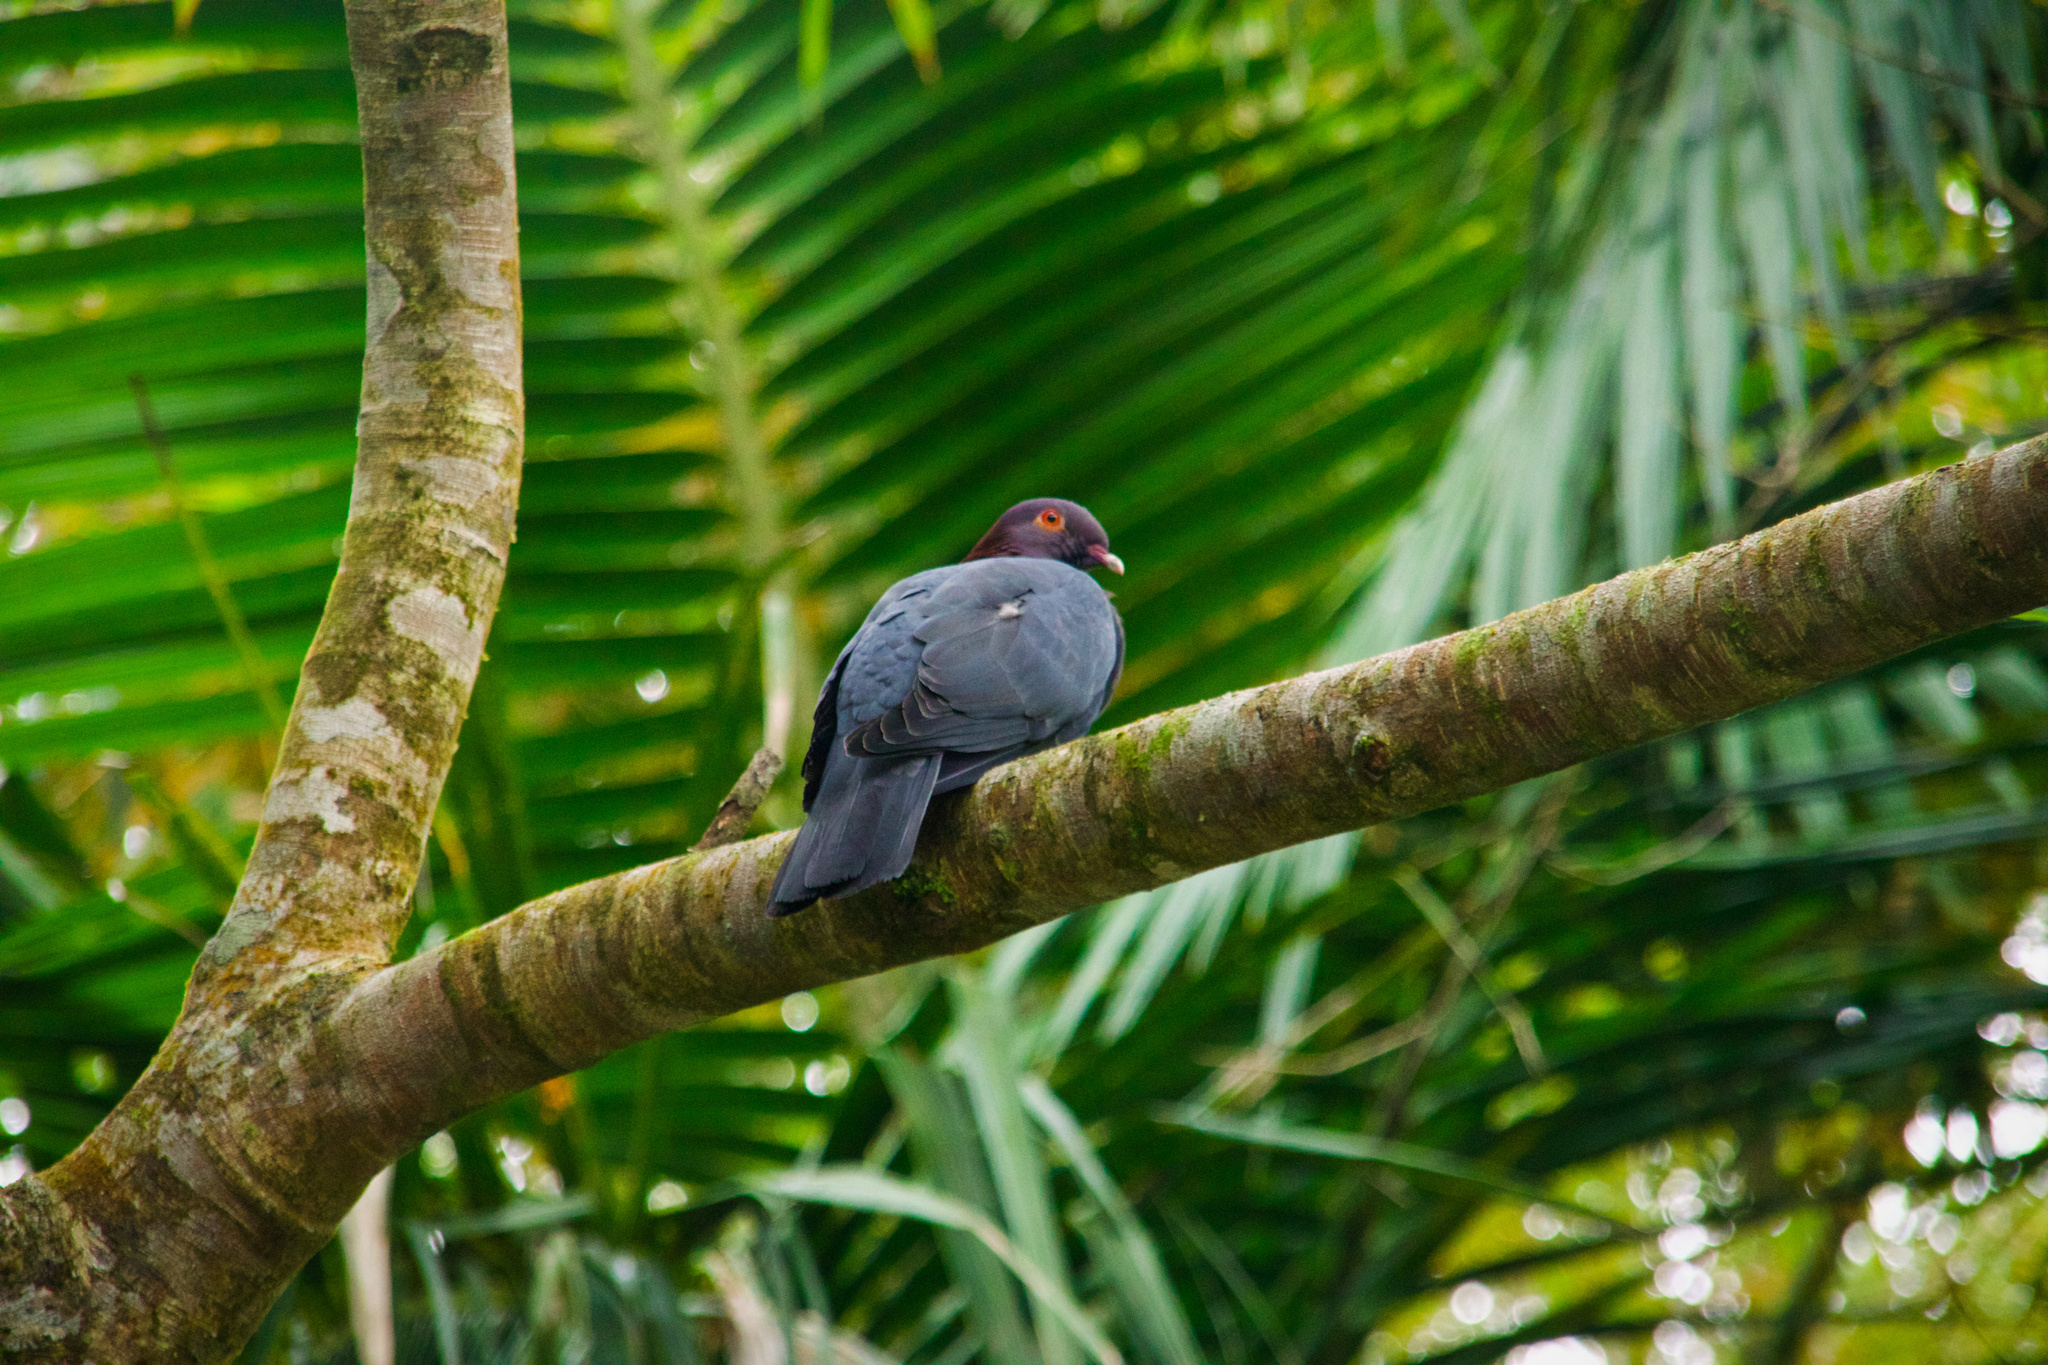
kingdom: Animalia
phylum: Chordata
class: Aves
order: Columbiformes
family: Columbidae
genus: Patagioenas
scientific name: Patagioenas squamosa
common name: Scaly-naped pigeon
